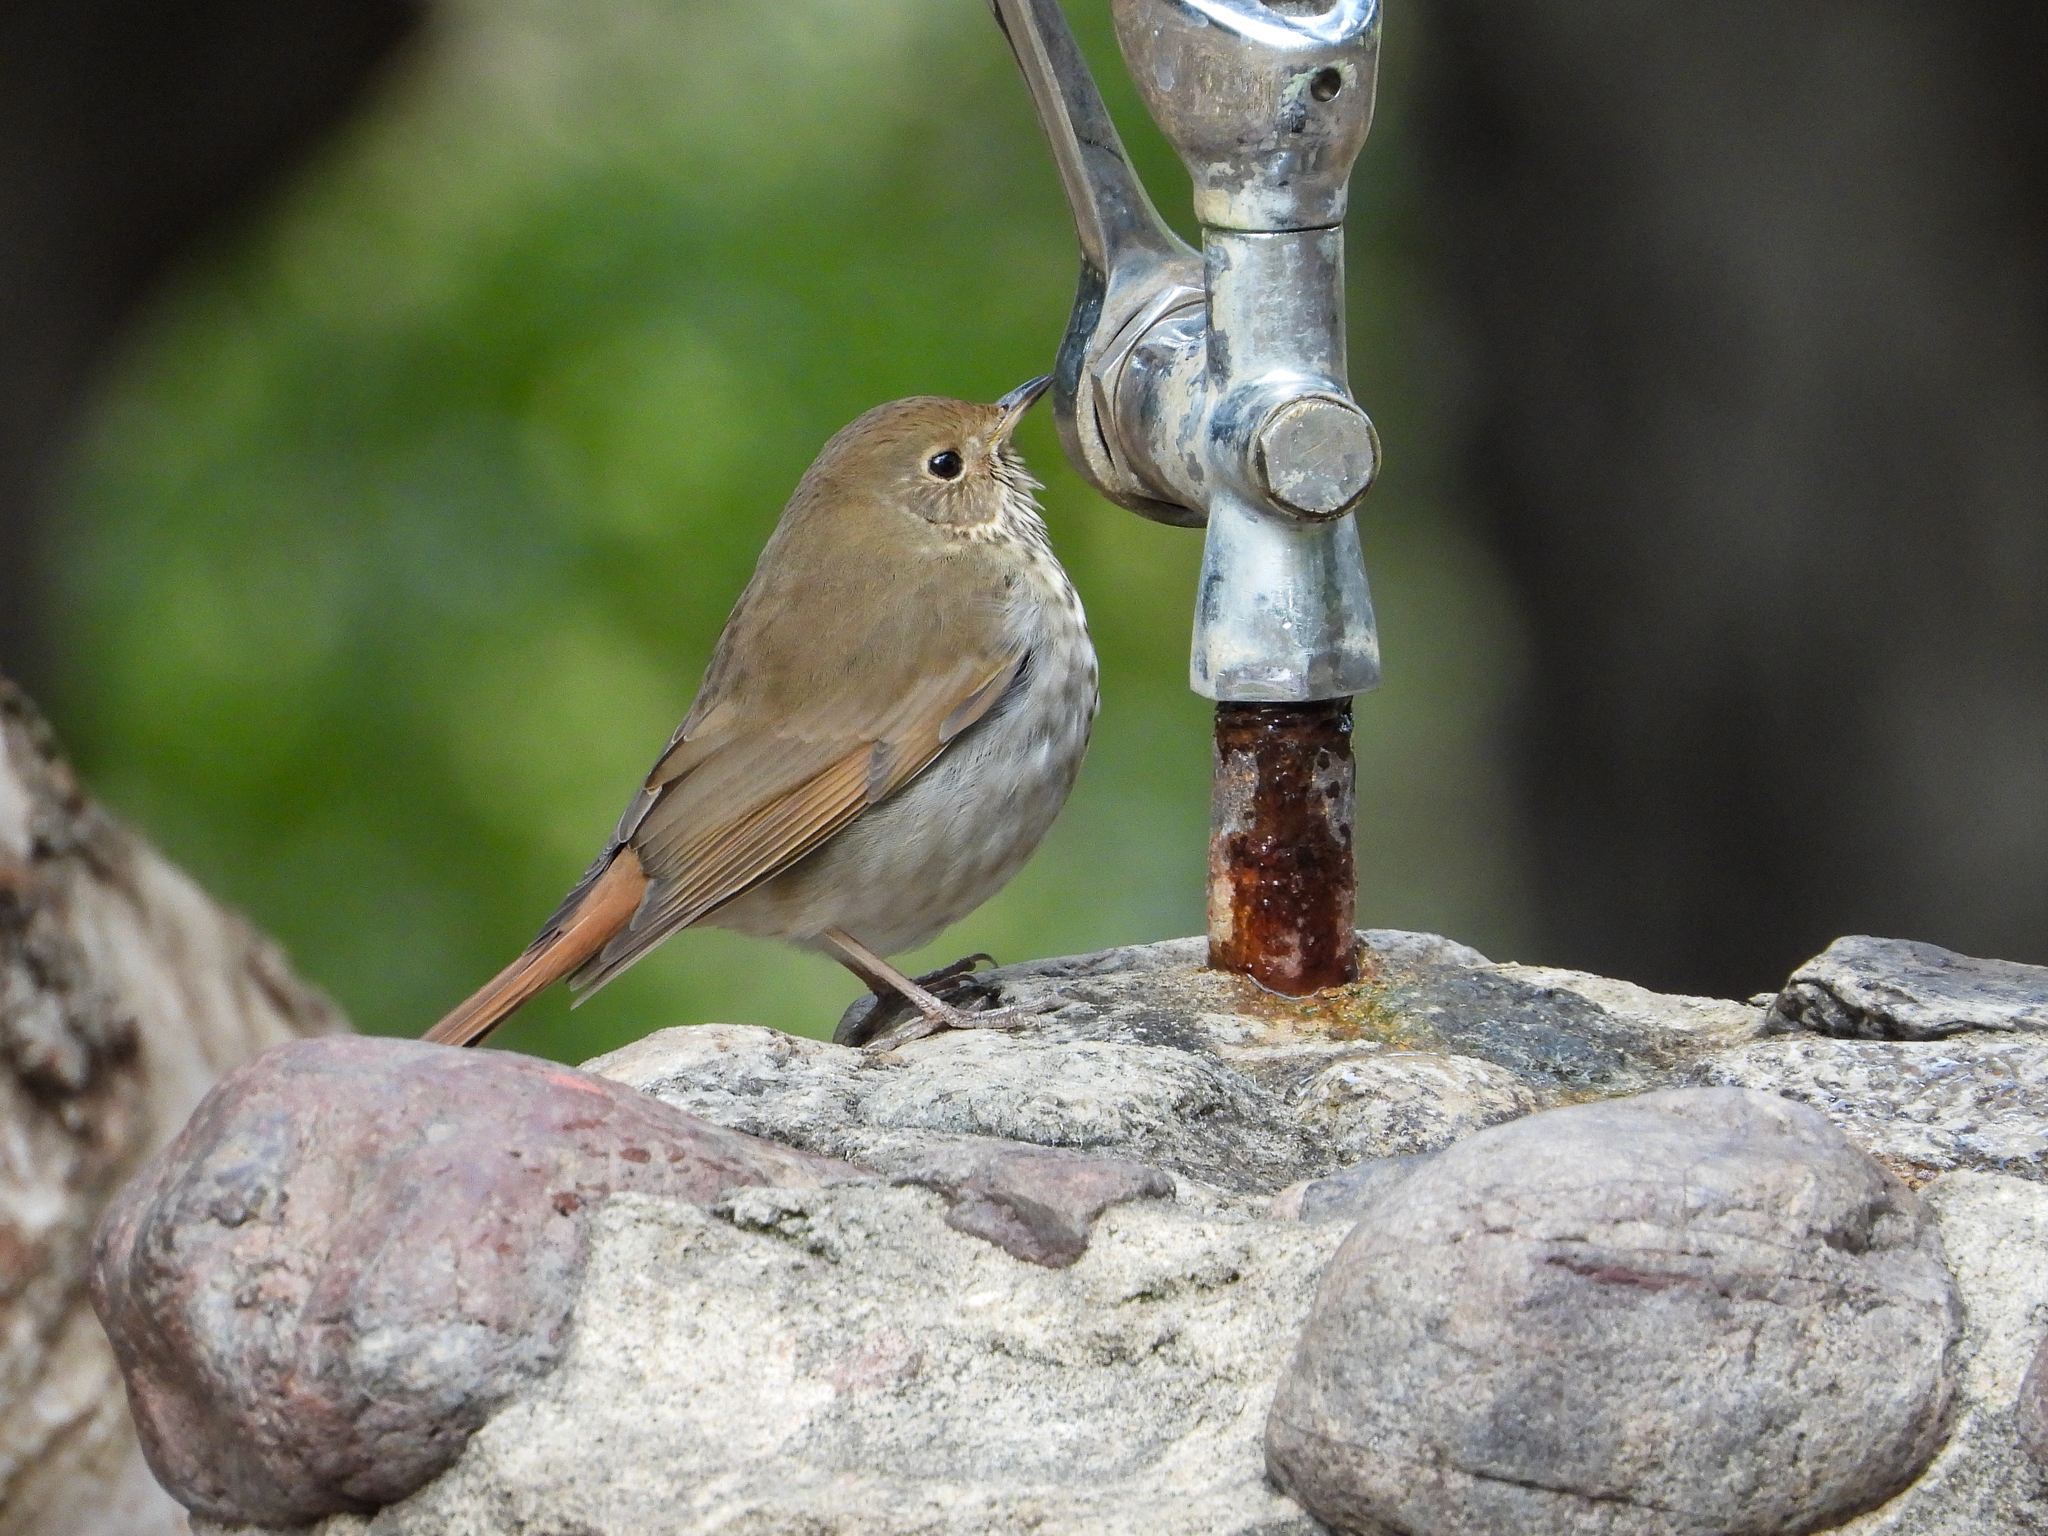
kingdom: Animalia
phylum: Chordata
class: Aves
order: Passeriformes
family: Turdidae
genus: Catharus
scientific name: Catharus guttatus
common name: Hermit thrush
